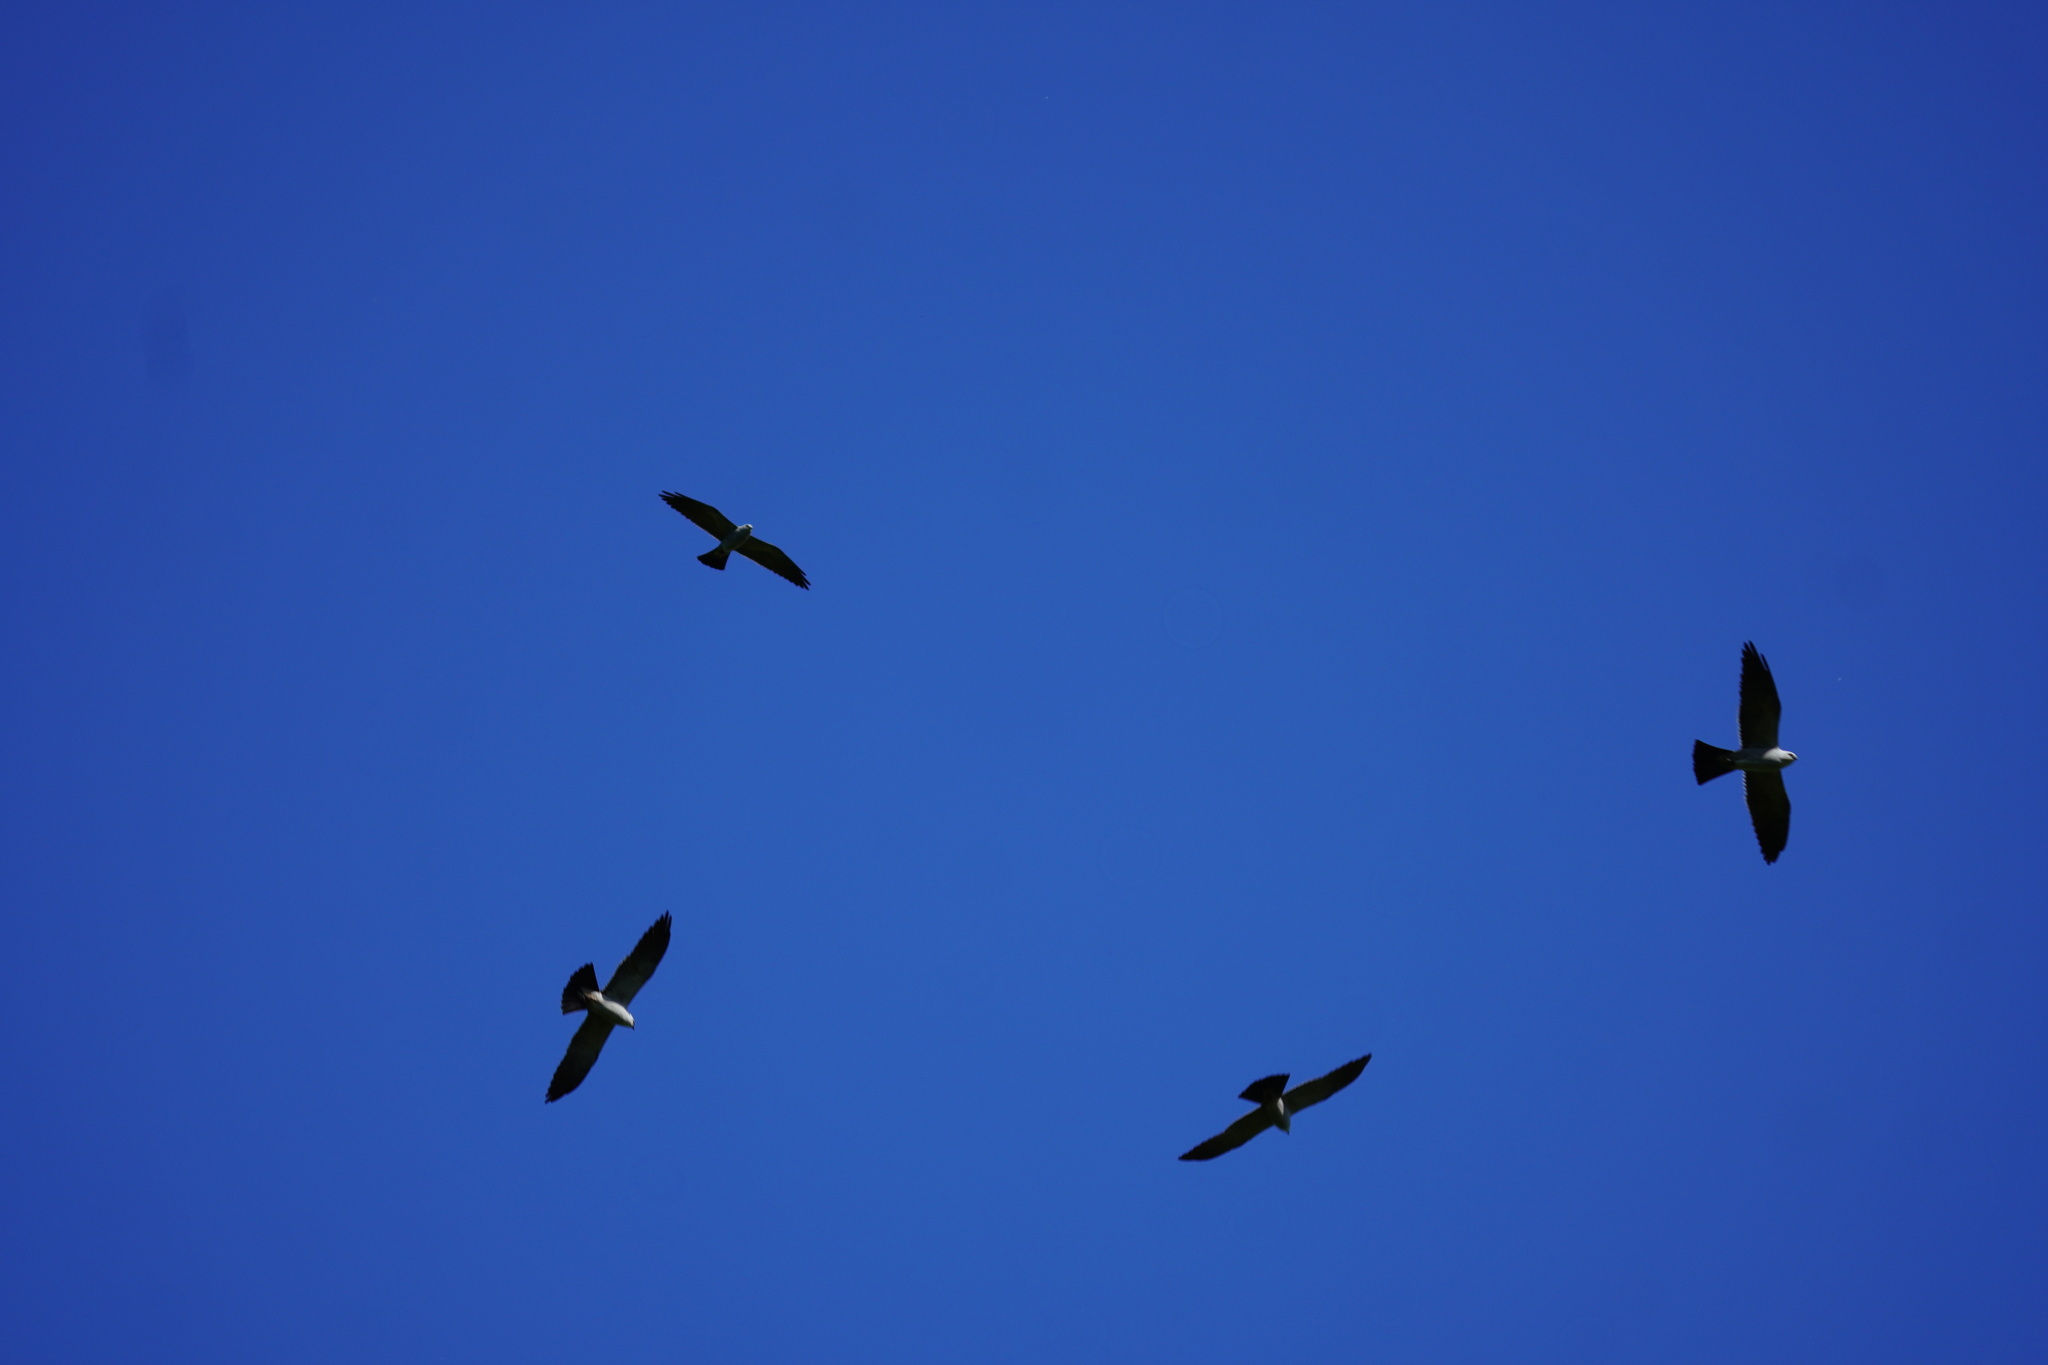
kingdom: Animalia
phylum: Chordata
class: Aves
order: Accipitriformes
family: Accipitridae
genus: Ictinia
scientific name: Ictinia mississippiensis
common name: Mississippi kite
